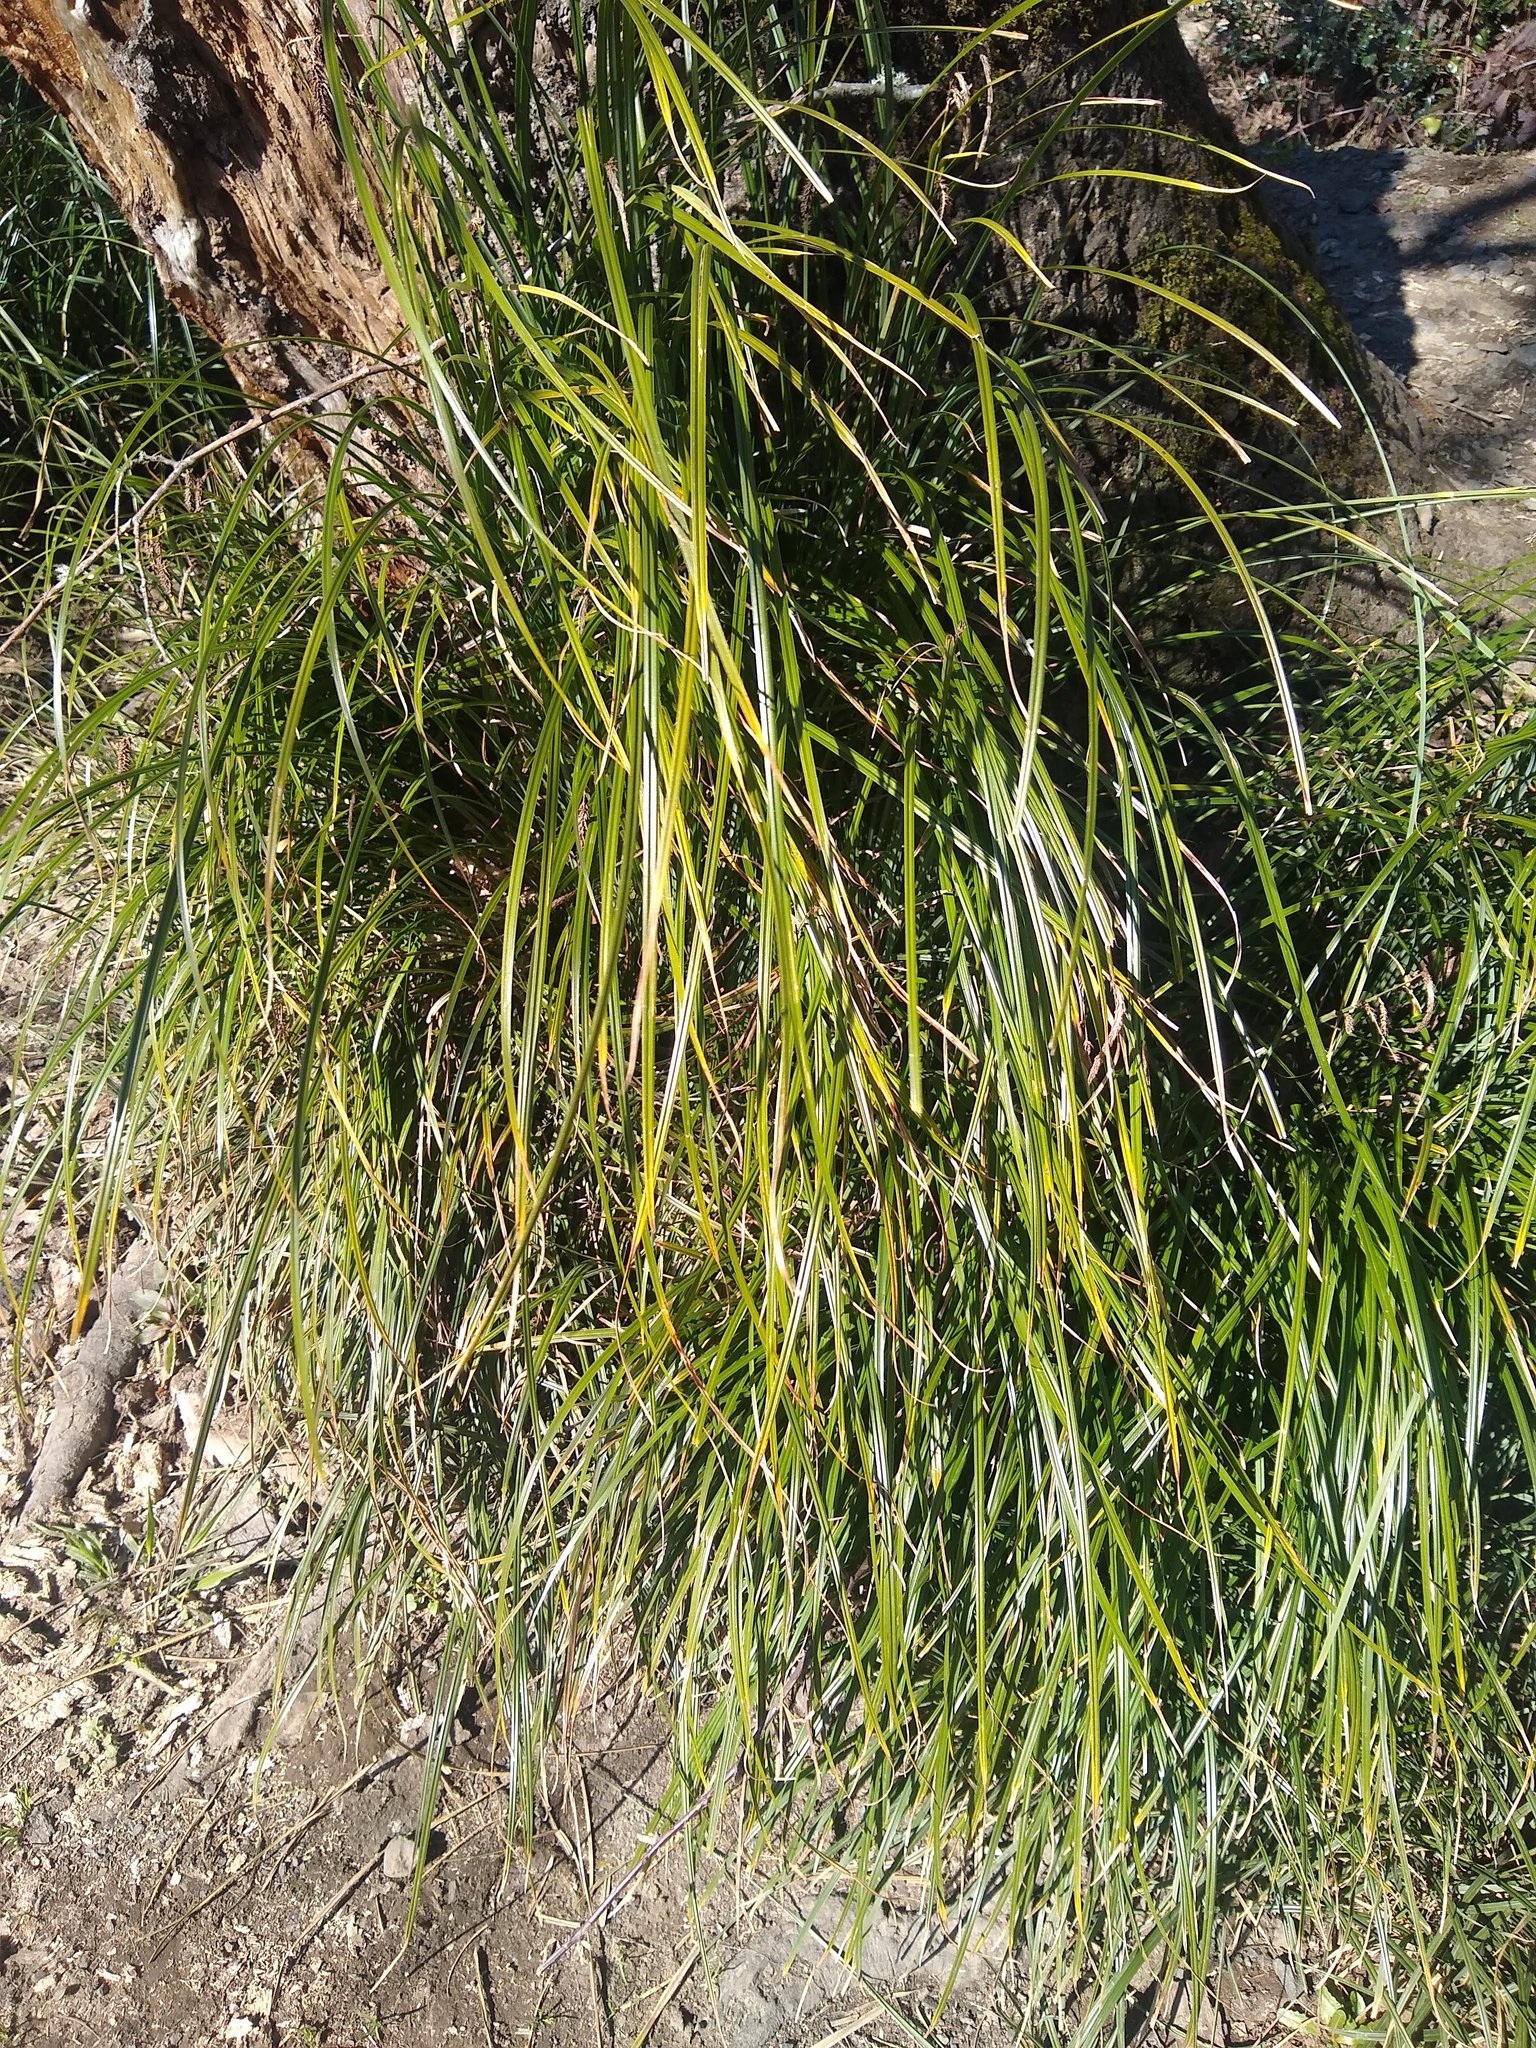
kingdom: Plantae
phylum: Tracheophyta
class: Liliopsida
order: Poales
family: Cyperaceae
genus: Carex
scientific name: Carex obnupta
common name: Slough sedge
